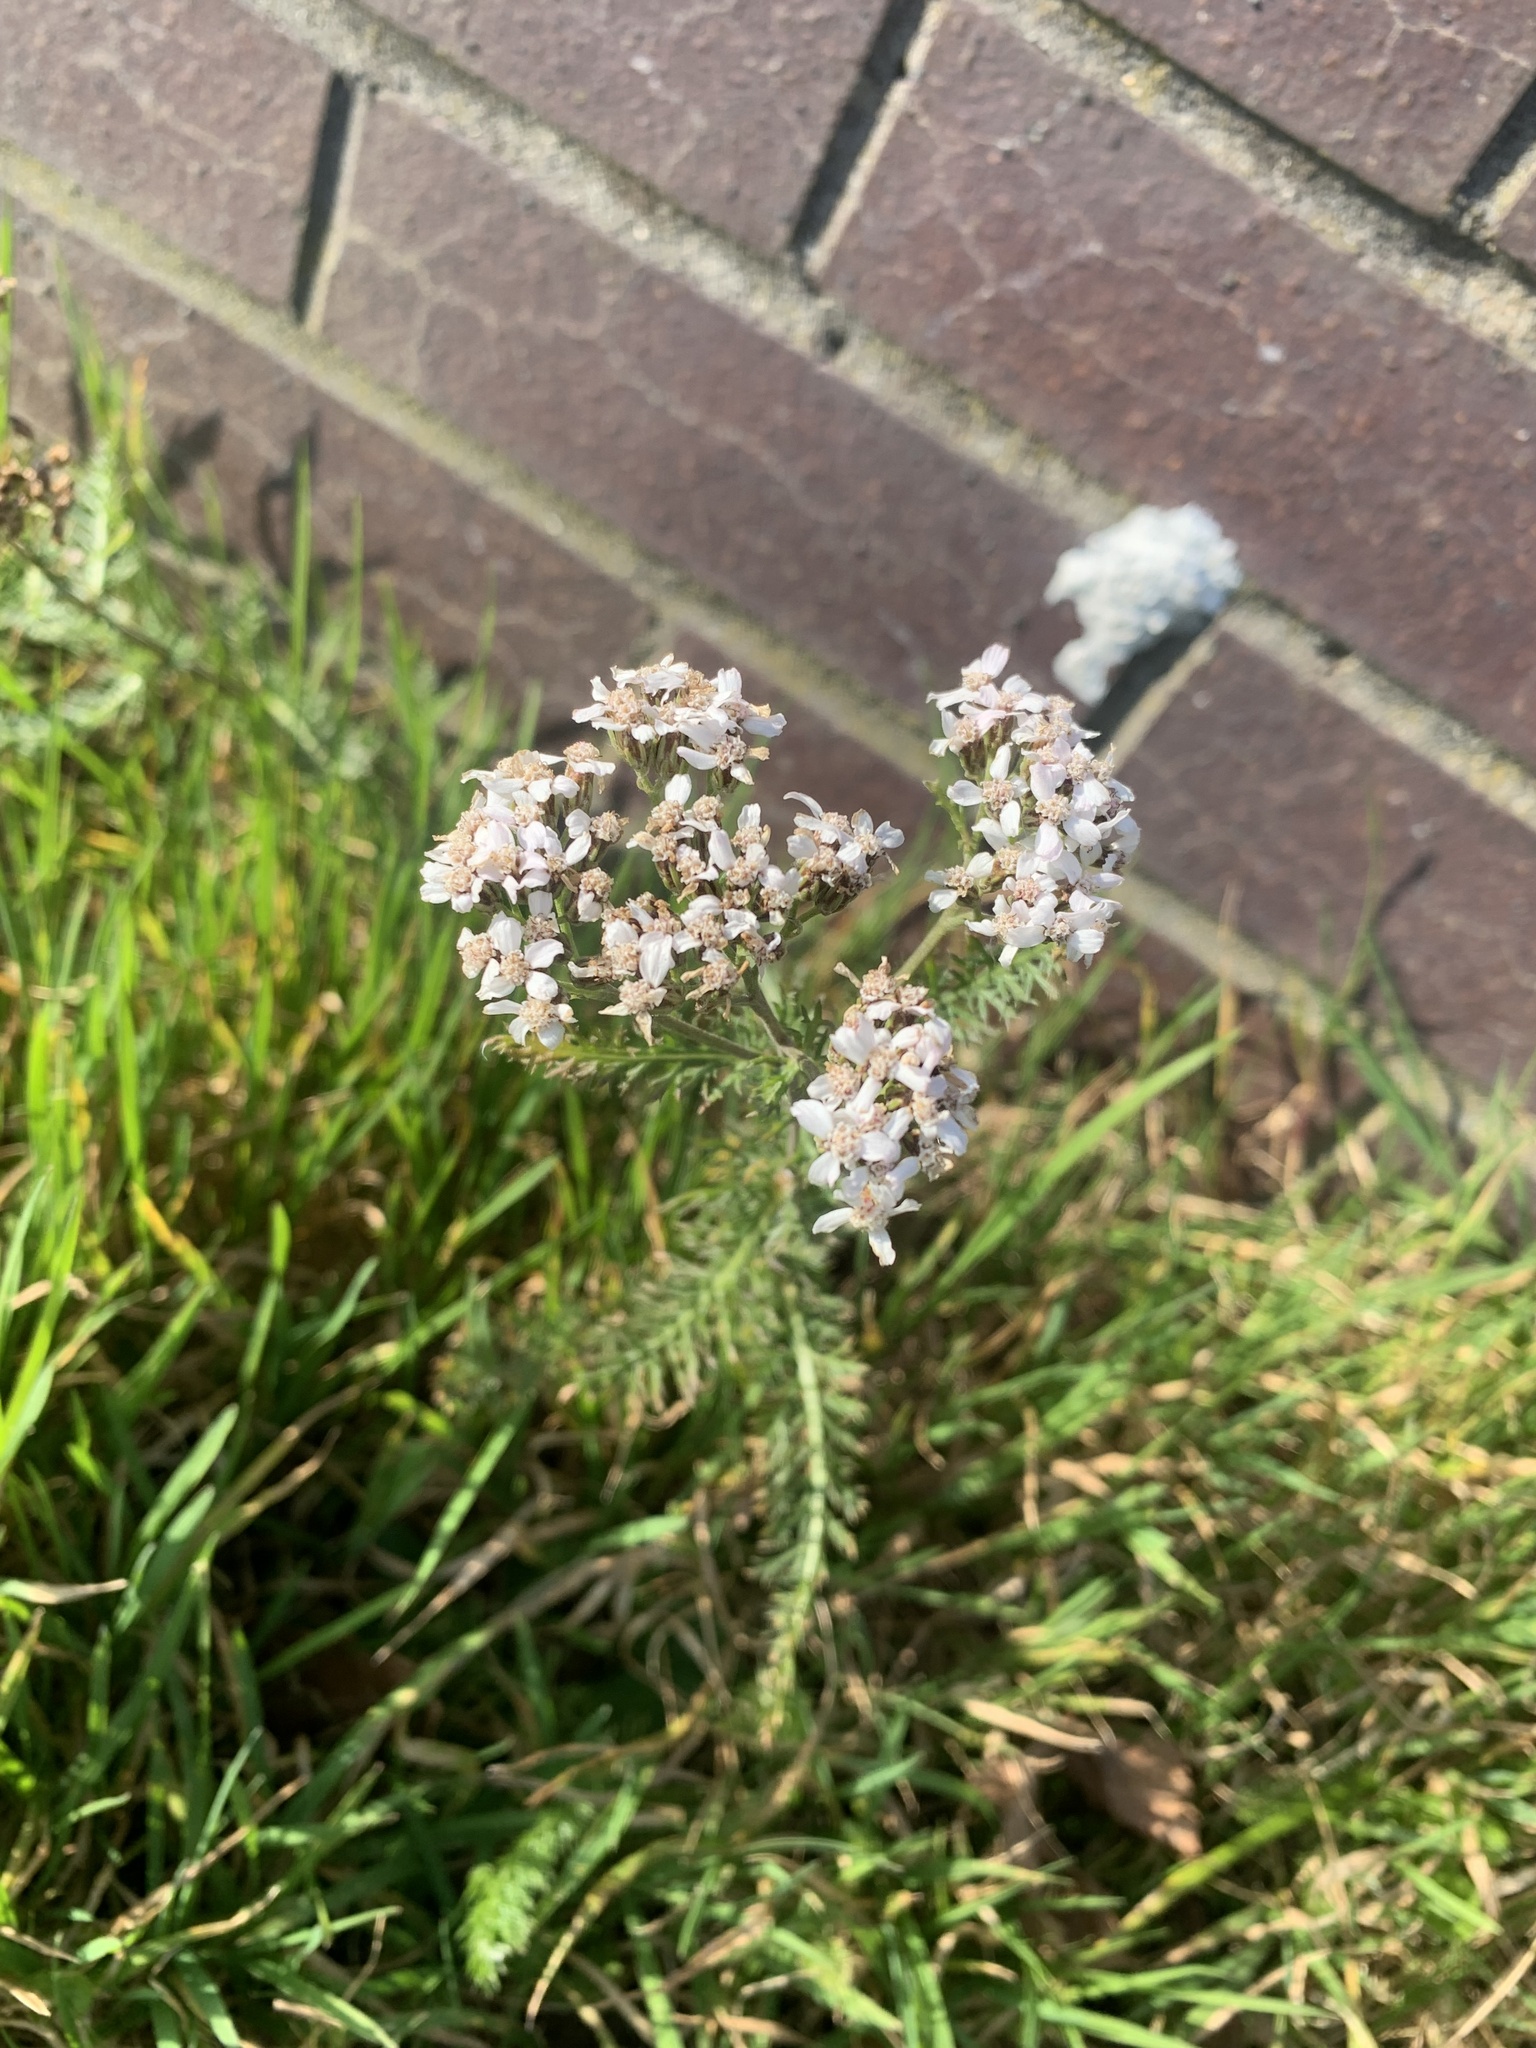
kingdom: Plantae
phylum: Tracheophyta
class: Magnoliopsida
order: Asterales
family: Asteraceae
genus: Achillea
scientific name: Achillea millefolium
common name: Yarrow
